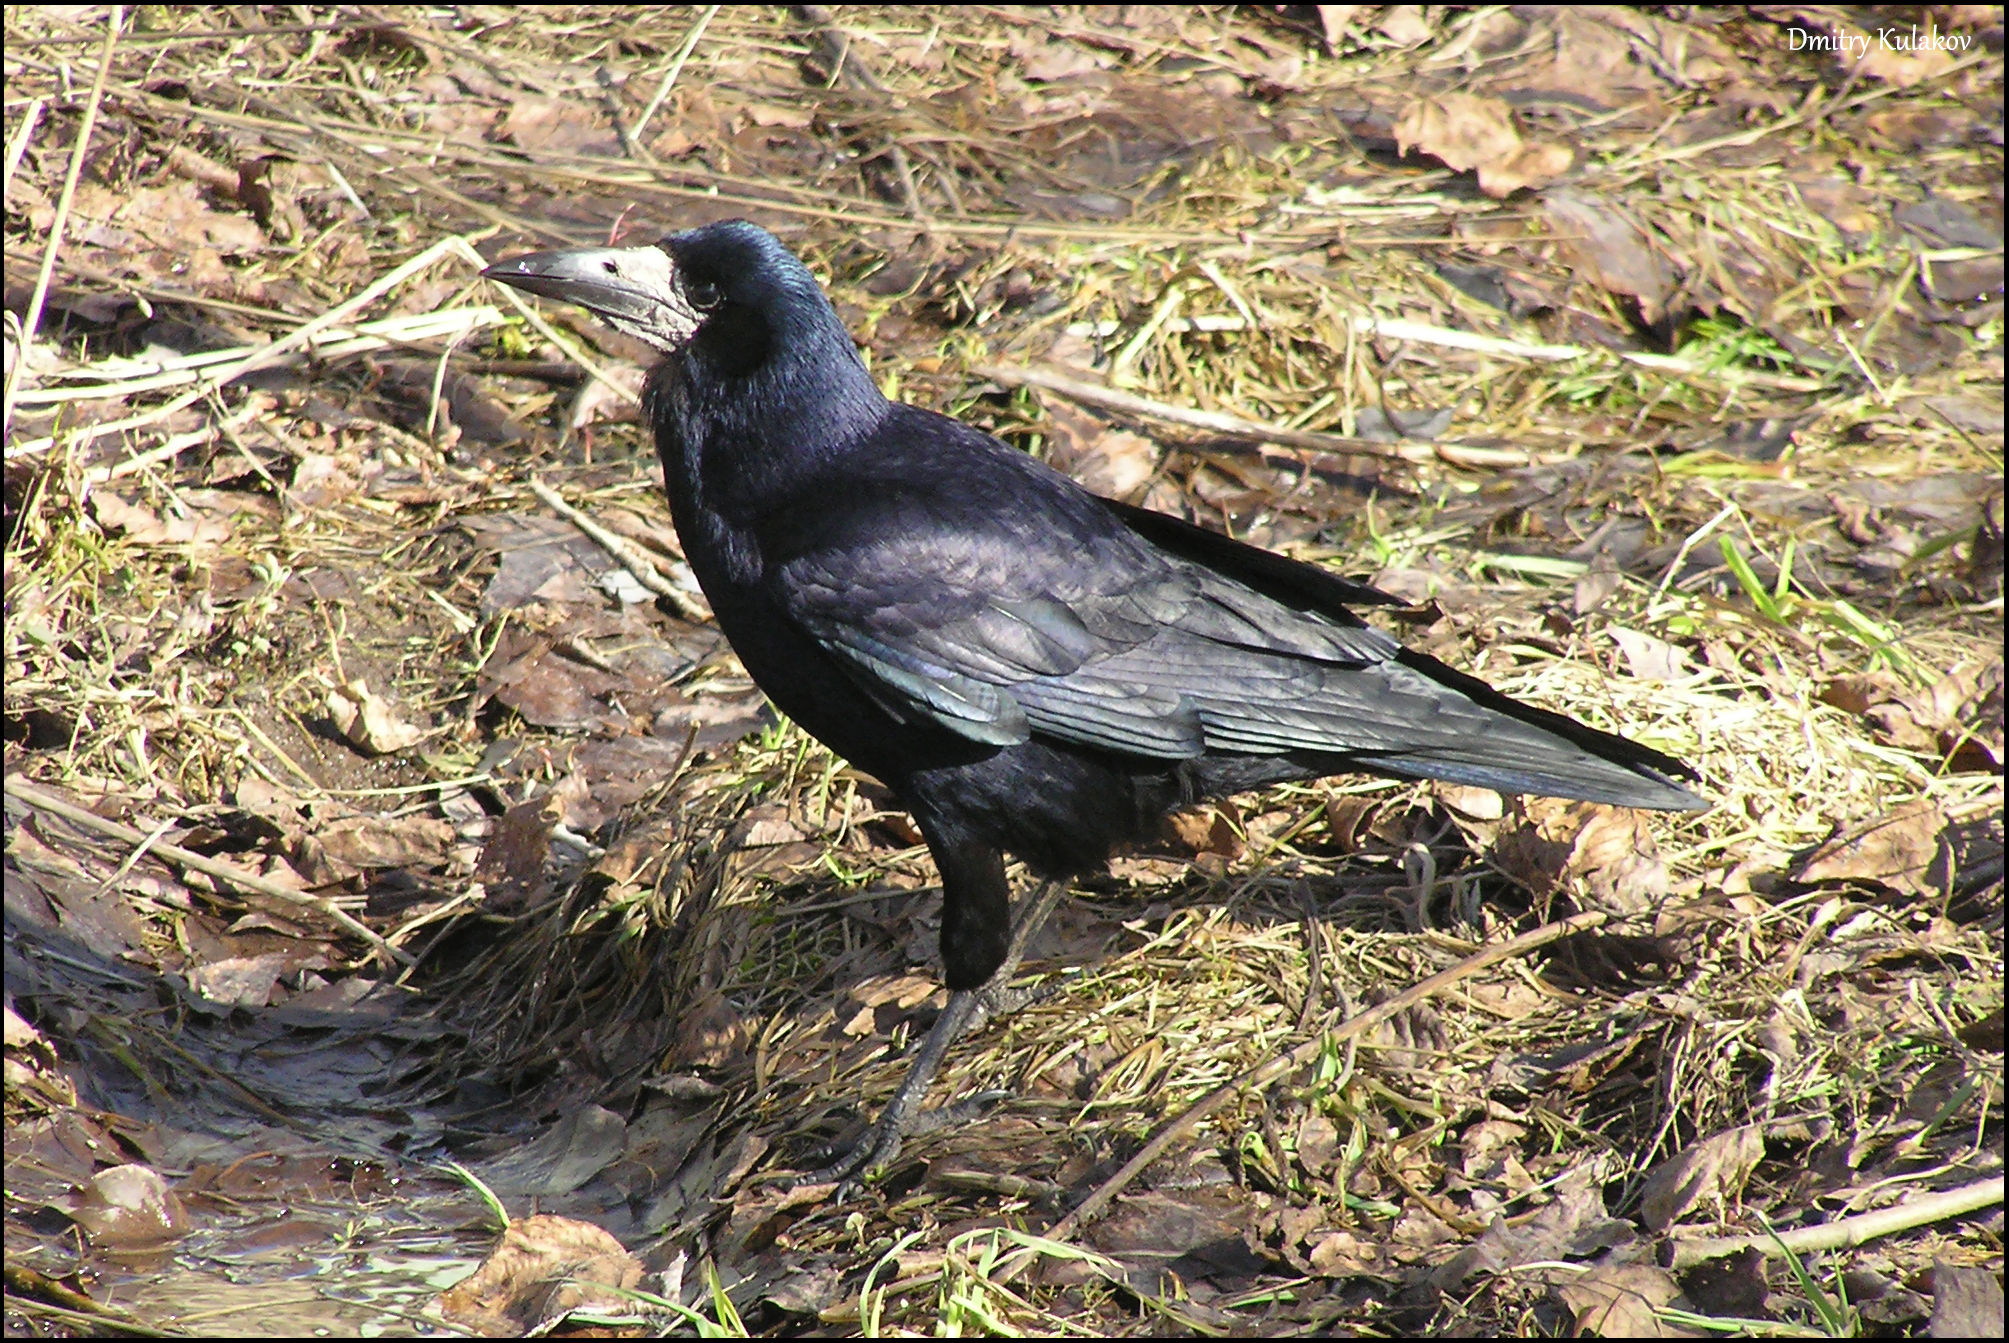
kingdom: Animalia
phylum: Chordata
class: Aves
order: Passeriformes
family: Corvidae
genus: Corvus
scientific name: Corvus frugilegus
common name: Rook
